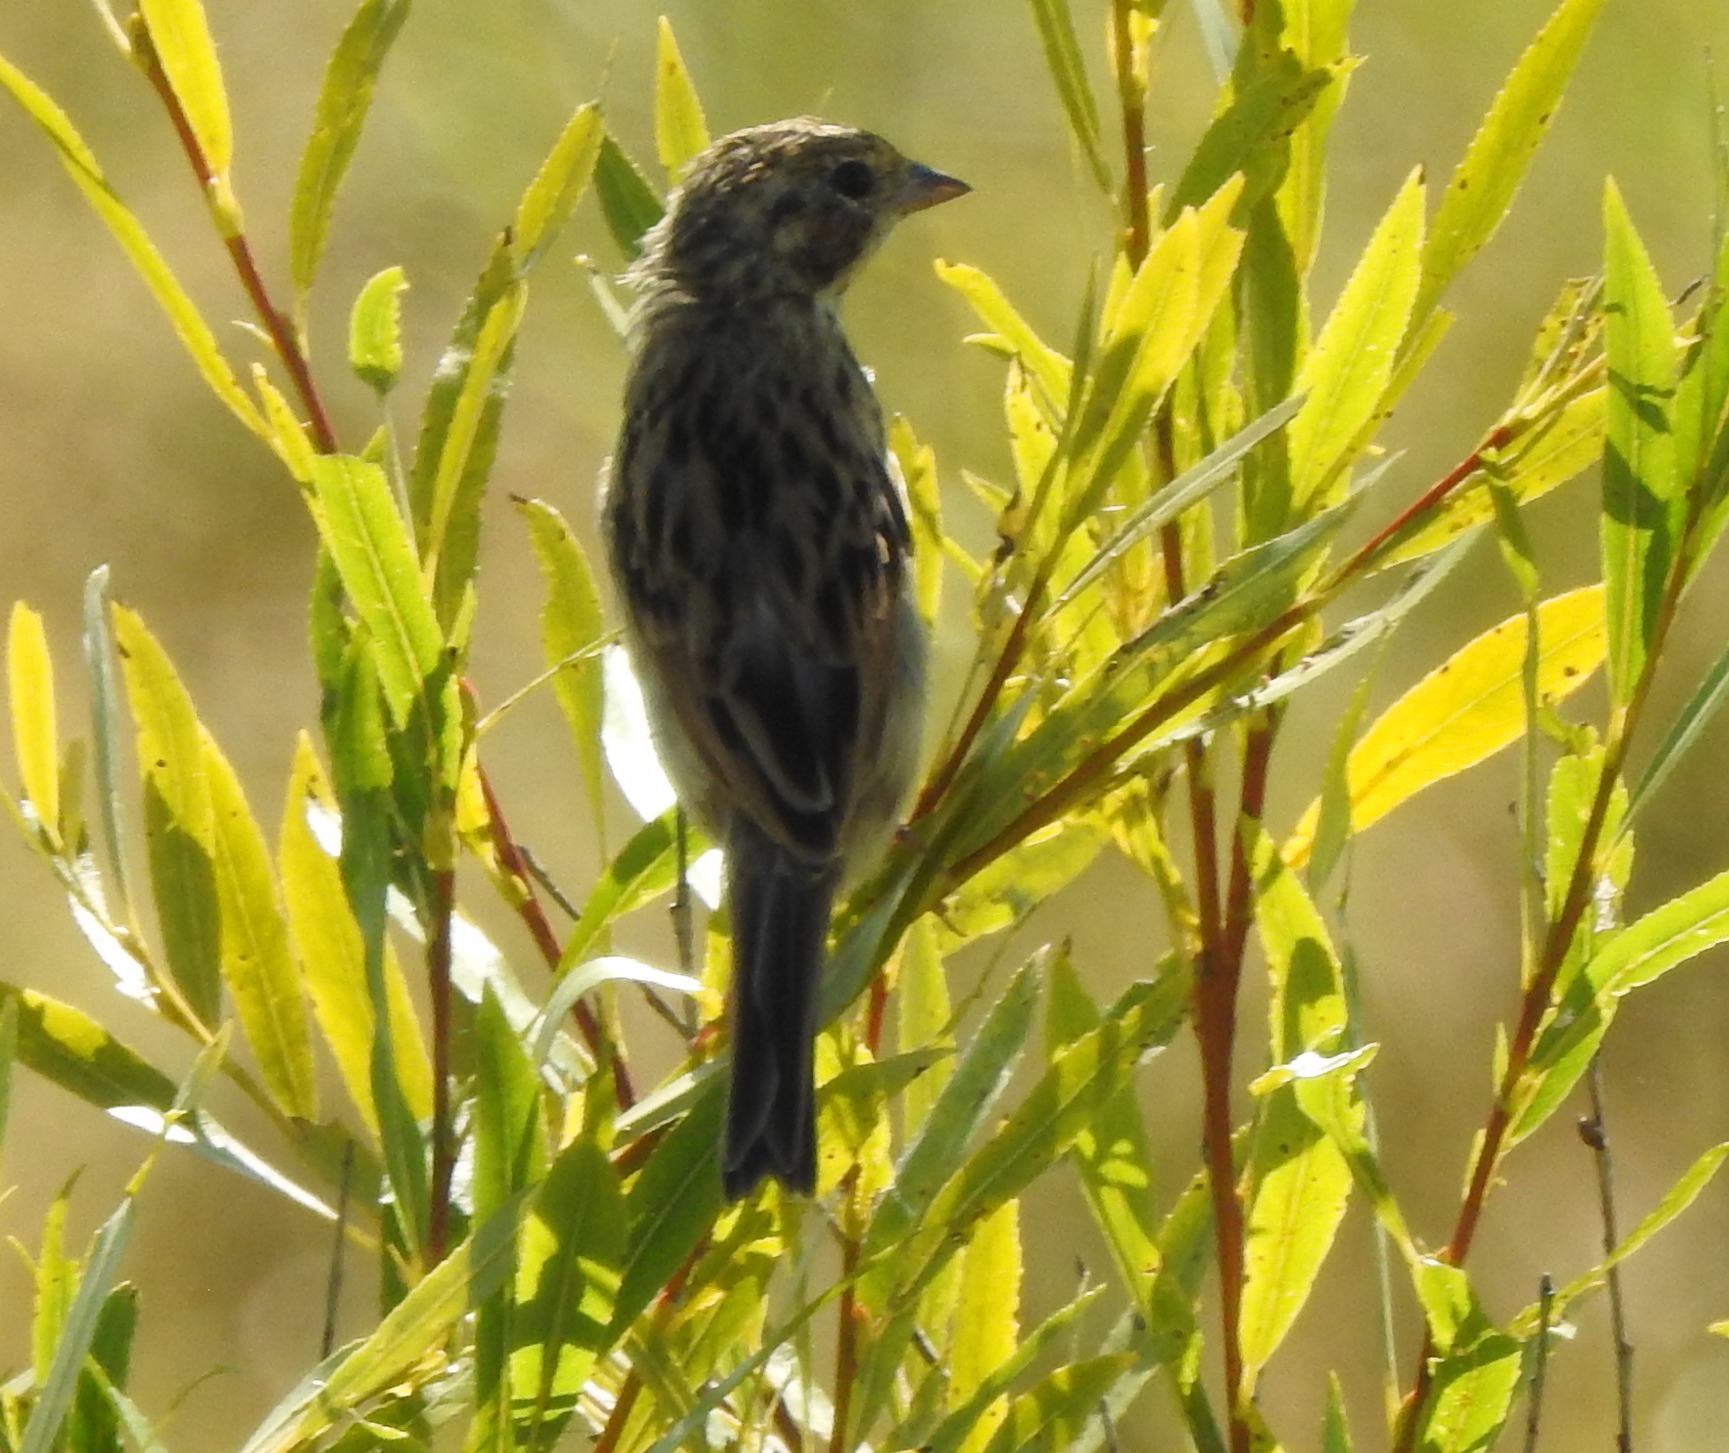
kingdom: Animalia
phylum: Chordata
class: Aves
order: Passeriformes
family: Emberizidae
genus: Emberiza
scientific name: Emberiza fucata
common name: Chestnut-eared bunting
